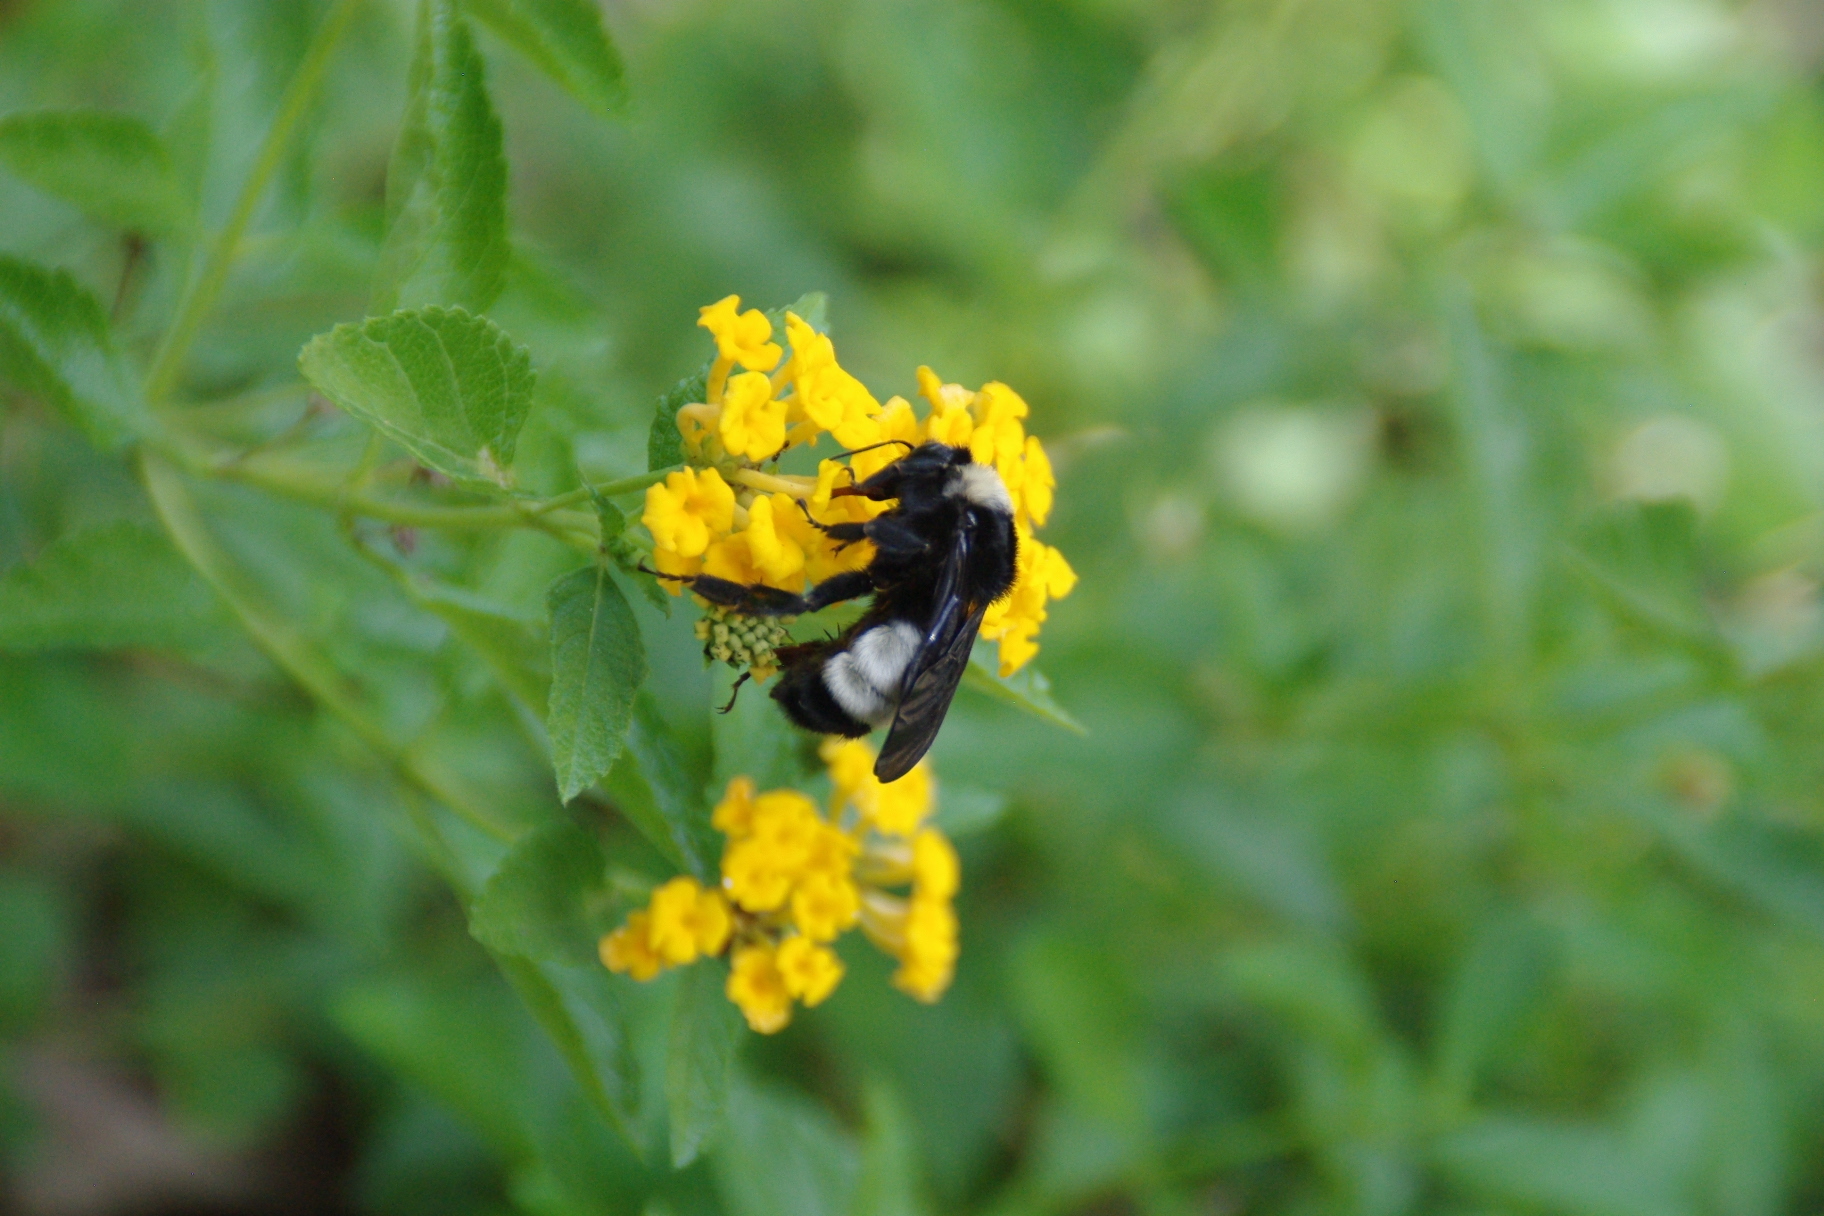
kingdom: Animalia
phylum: Arthropoda
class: Insecta
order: Hymenoptera
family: Apidae
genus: Bombus
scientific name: Bombus pensylvanicus
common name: Bumble bee
